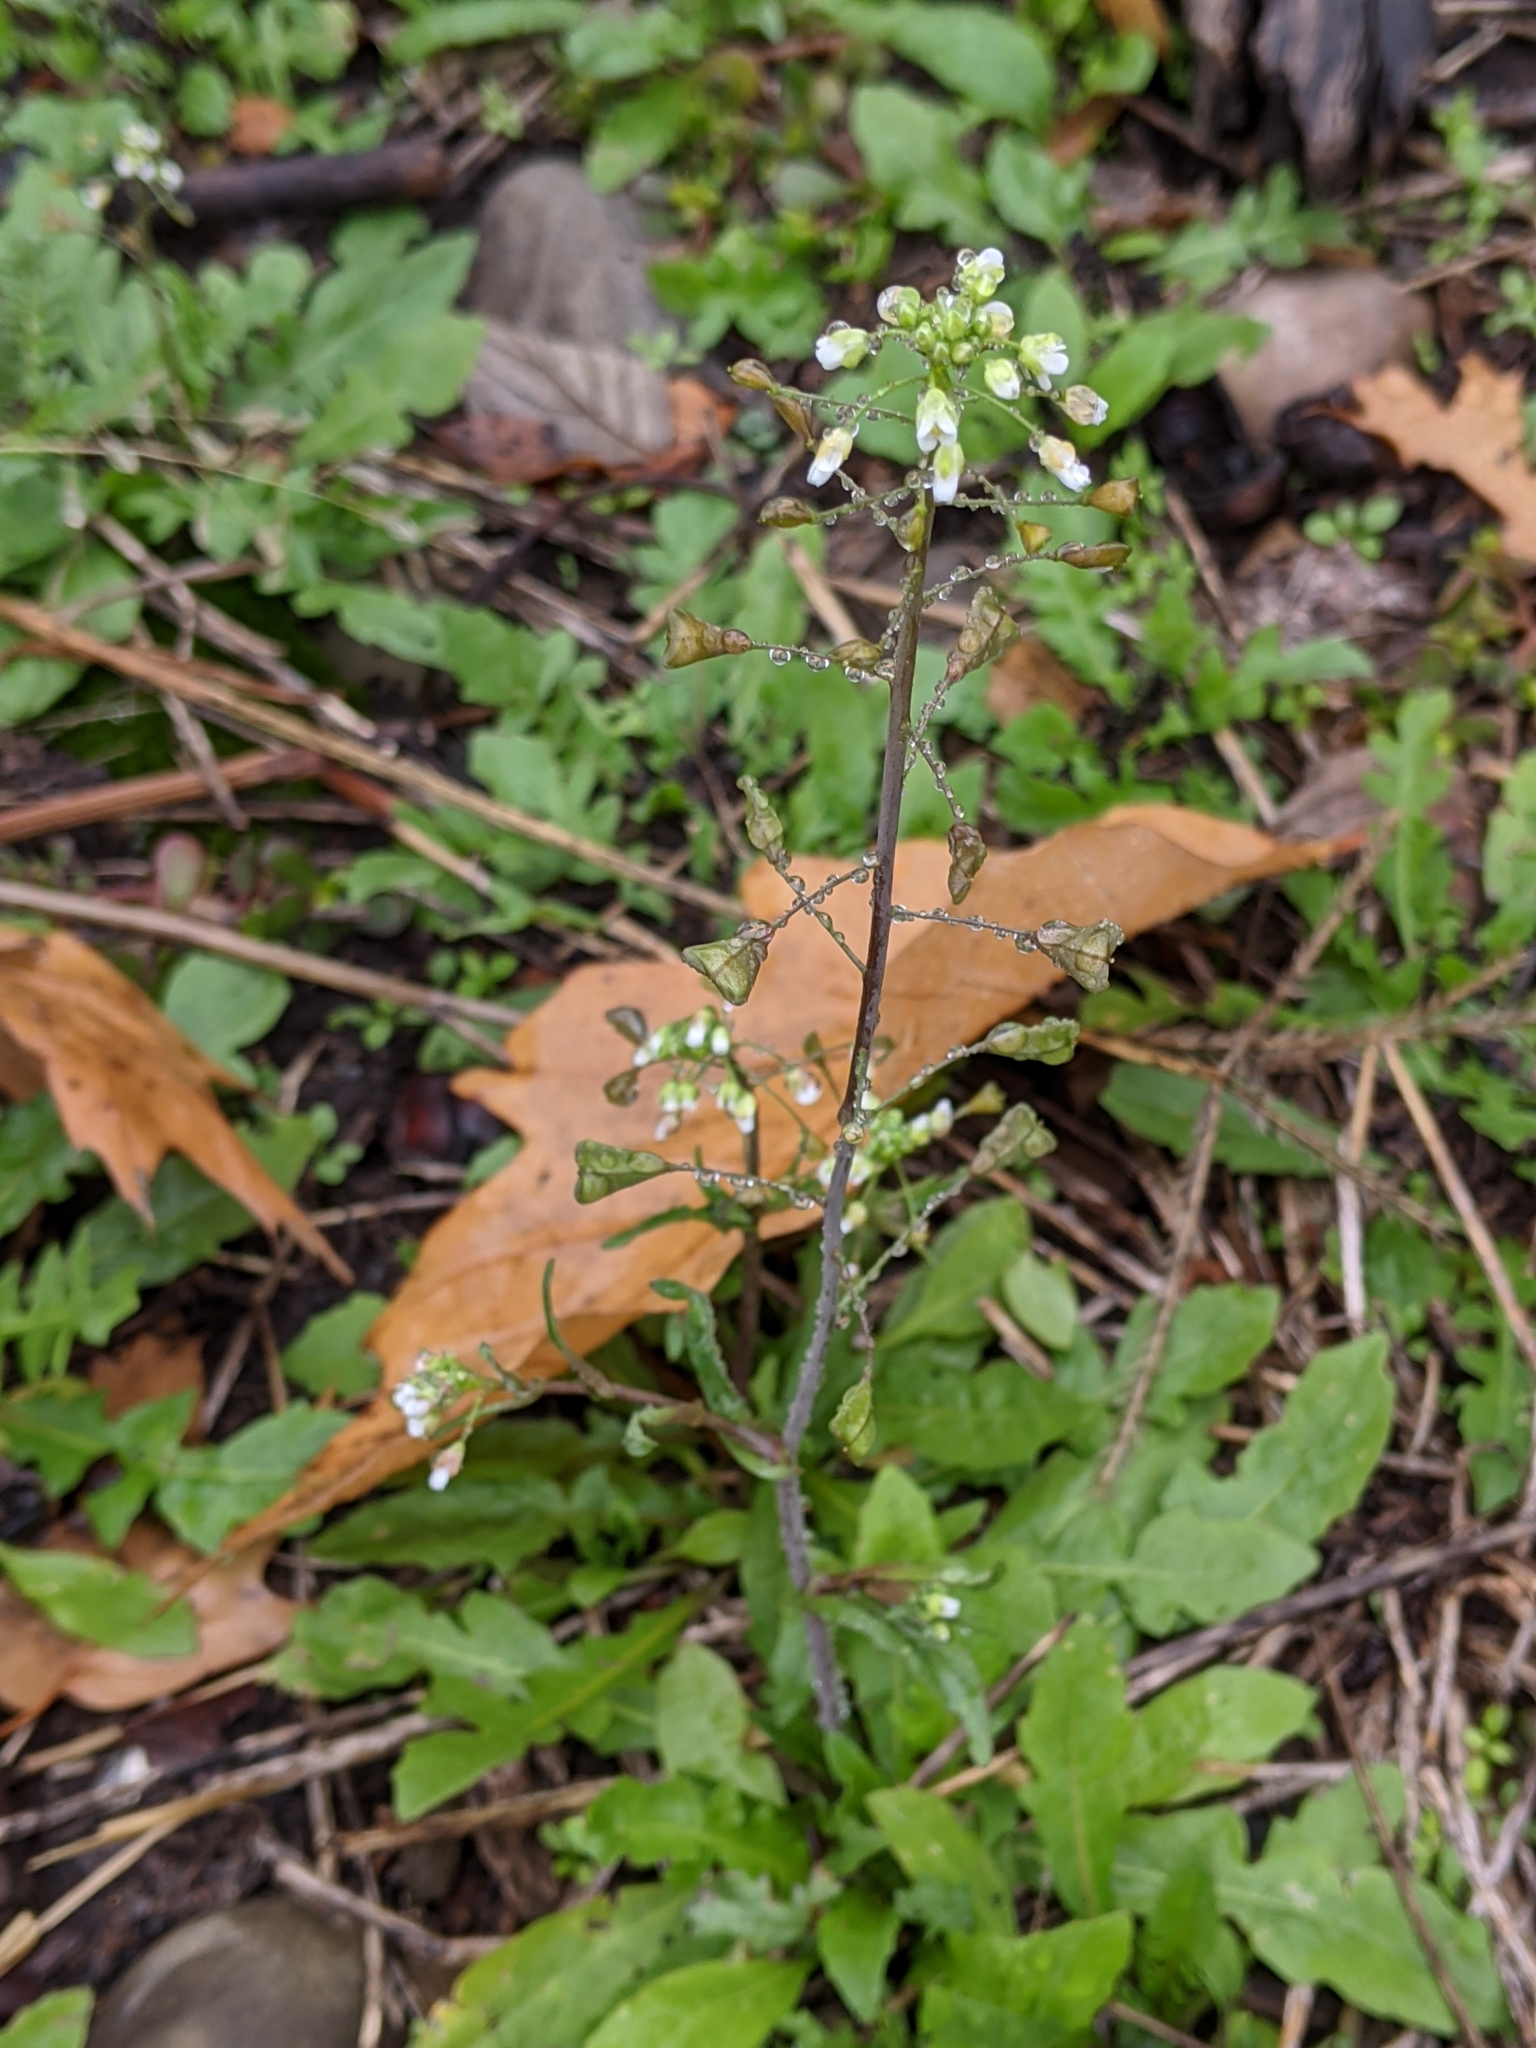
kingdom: Plantae
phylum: Tracheophyta
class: Magnoliopsida
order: Brassicales
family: Brassicaceae
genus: Capsella
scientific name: Capsella bursa-pastoris
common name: Shepherd's purse
